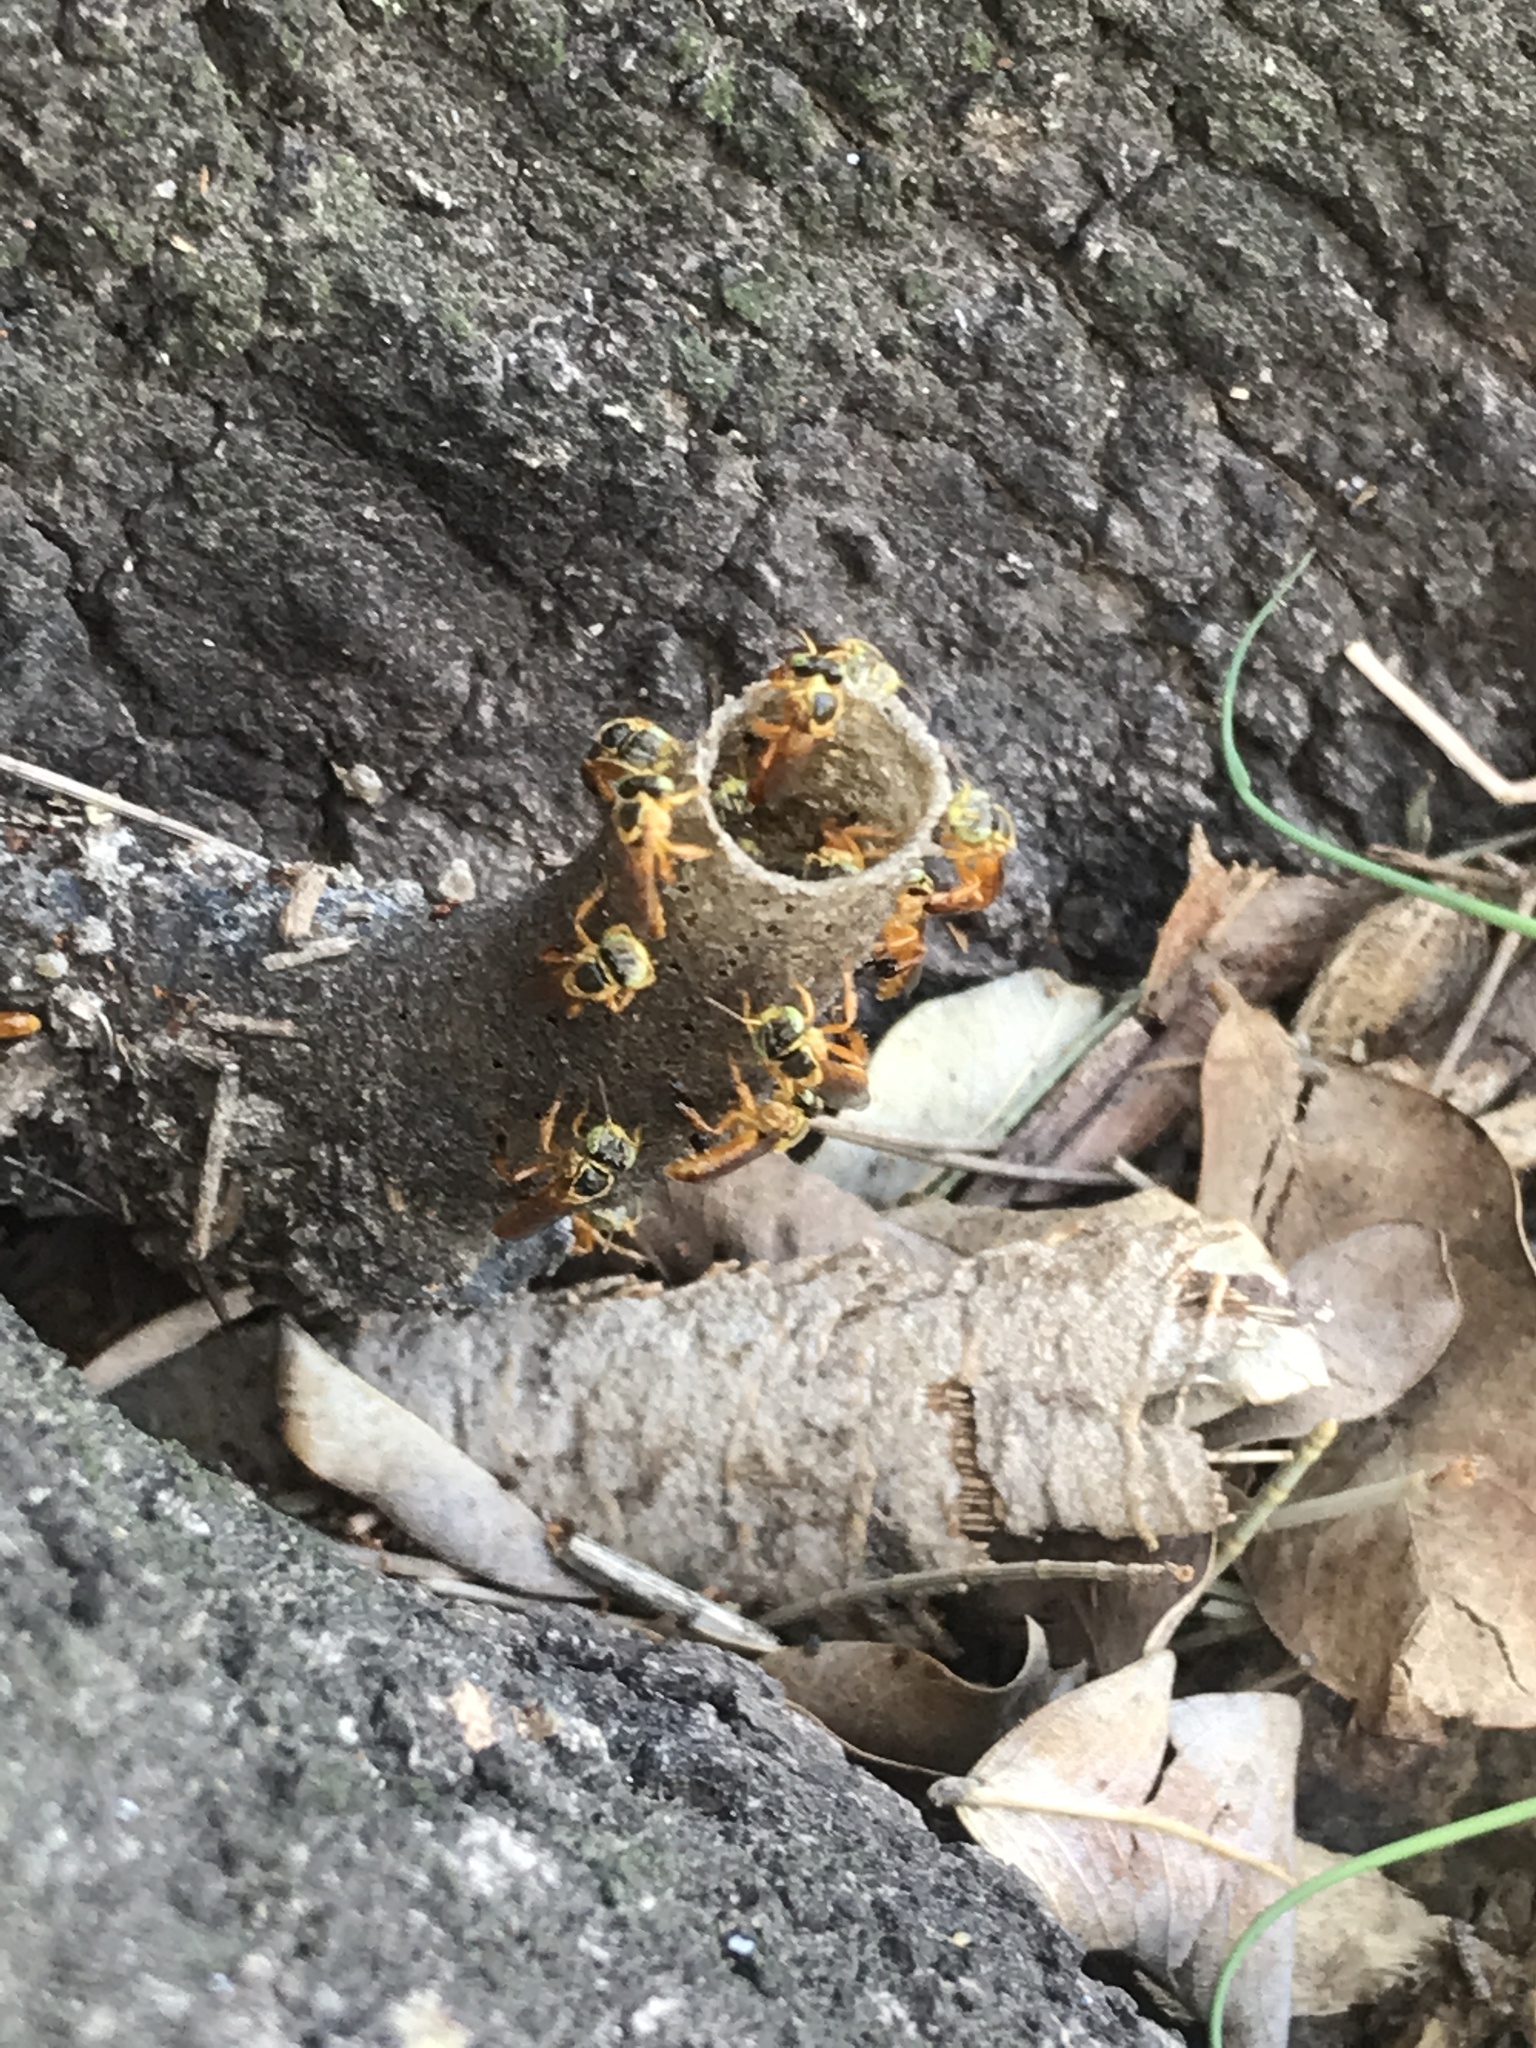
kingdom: Animalia
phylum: Arthropoda
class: Insecta
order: Hymenoptera
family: Apidae
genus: Tetragonisca
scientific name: Tetragonisca fiebrigi
